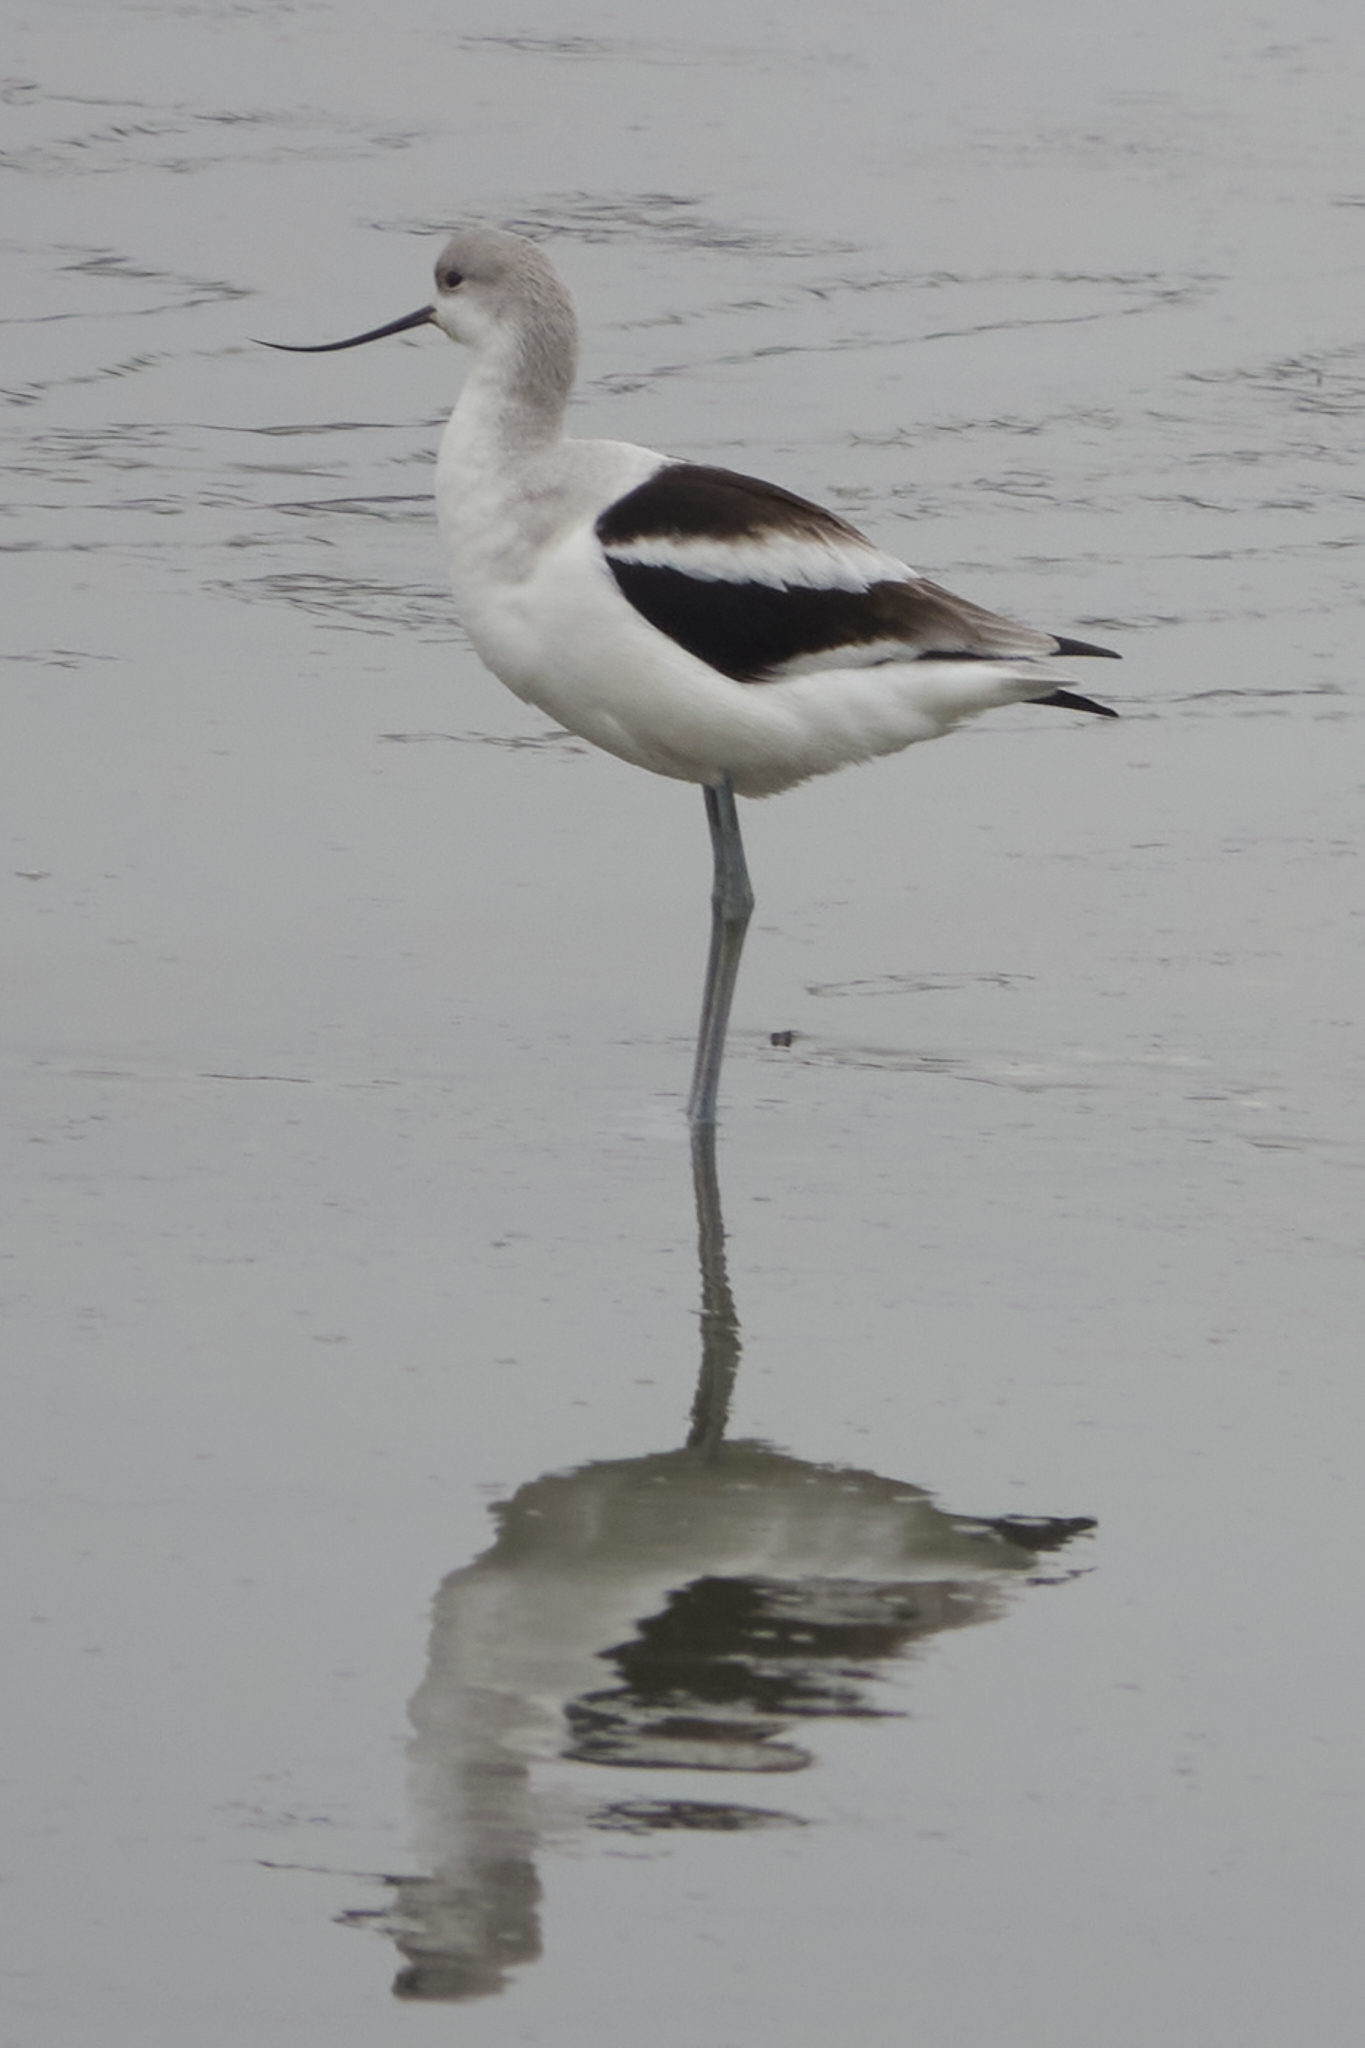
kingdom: Animalia
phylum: Chordata
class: Aves
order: Charadriiformes
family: Recurvirostridae
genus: Recurvirostra
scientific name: Recurvirostra americana
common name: American avocet
